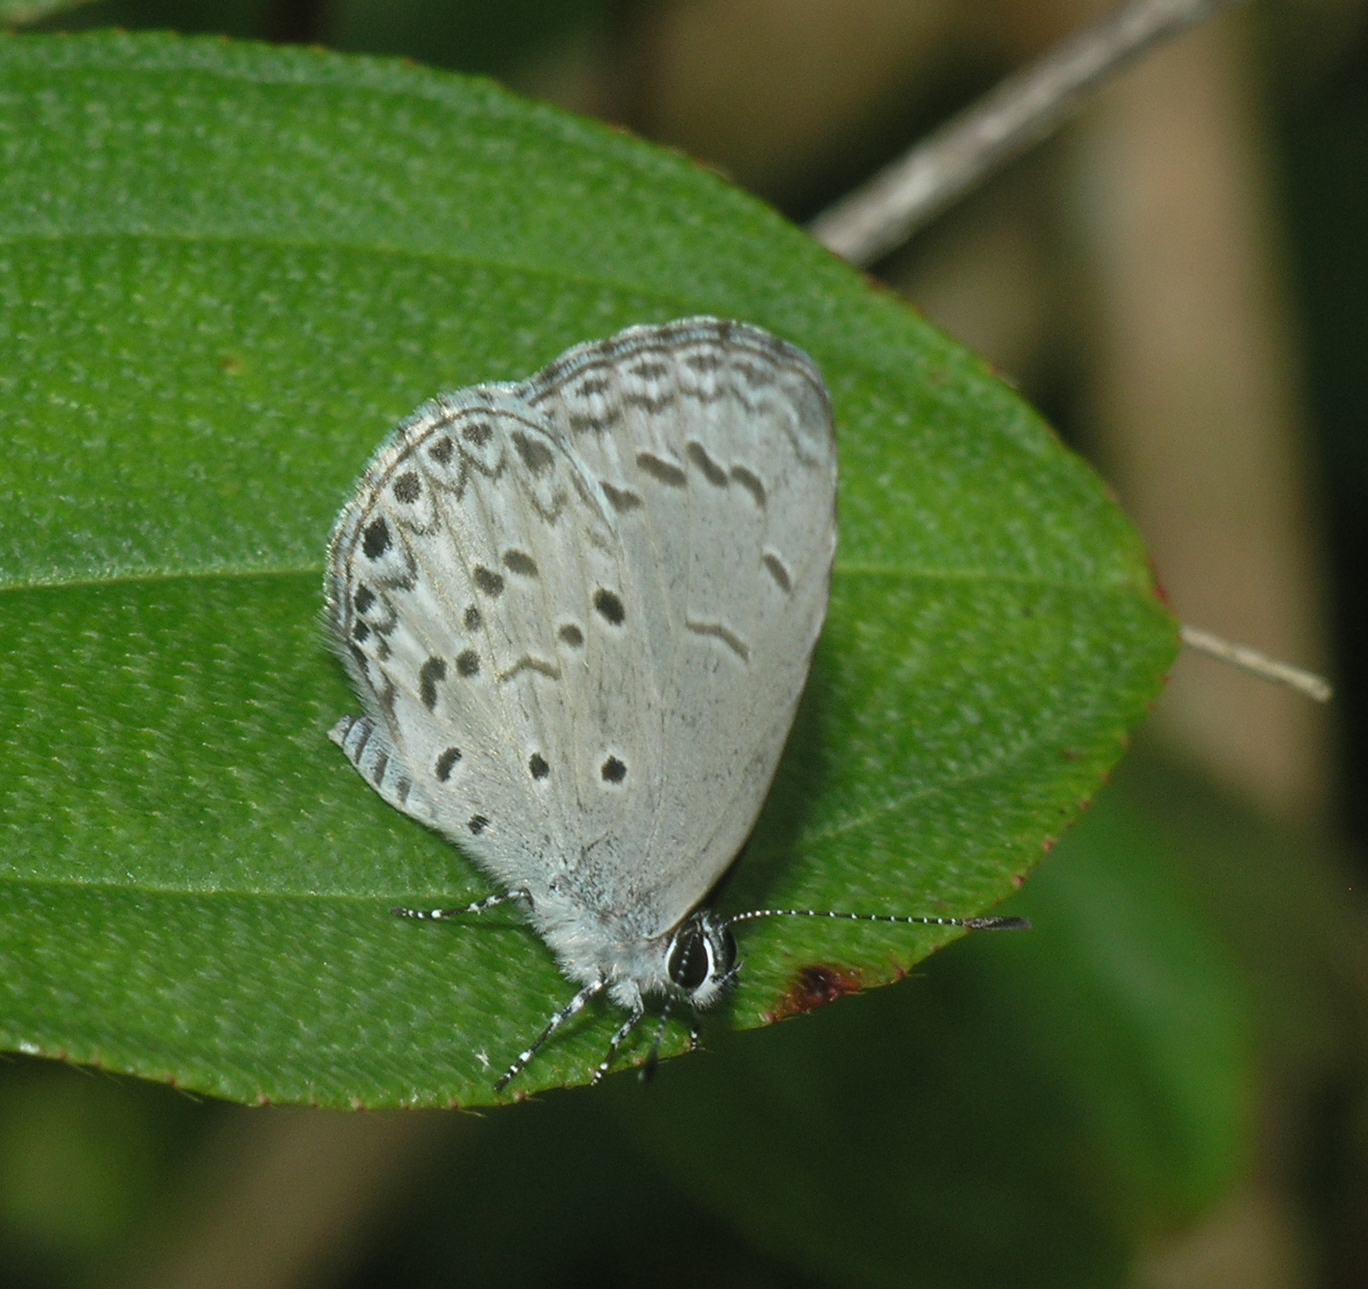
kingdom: Animalia
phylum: Arthropoda
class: Insecta
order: Lepidoptera
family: Lycaenidae
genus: Celastrina
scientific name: Celastrina lavendularis
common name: Plain hedge blue
